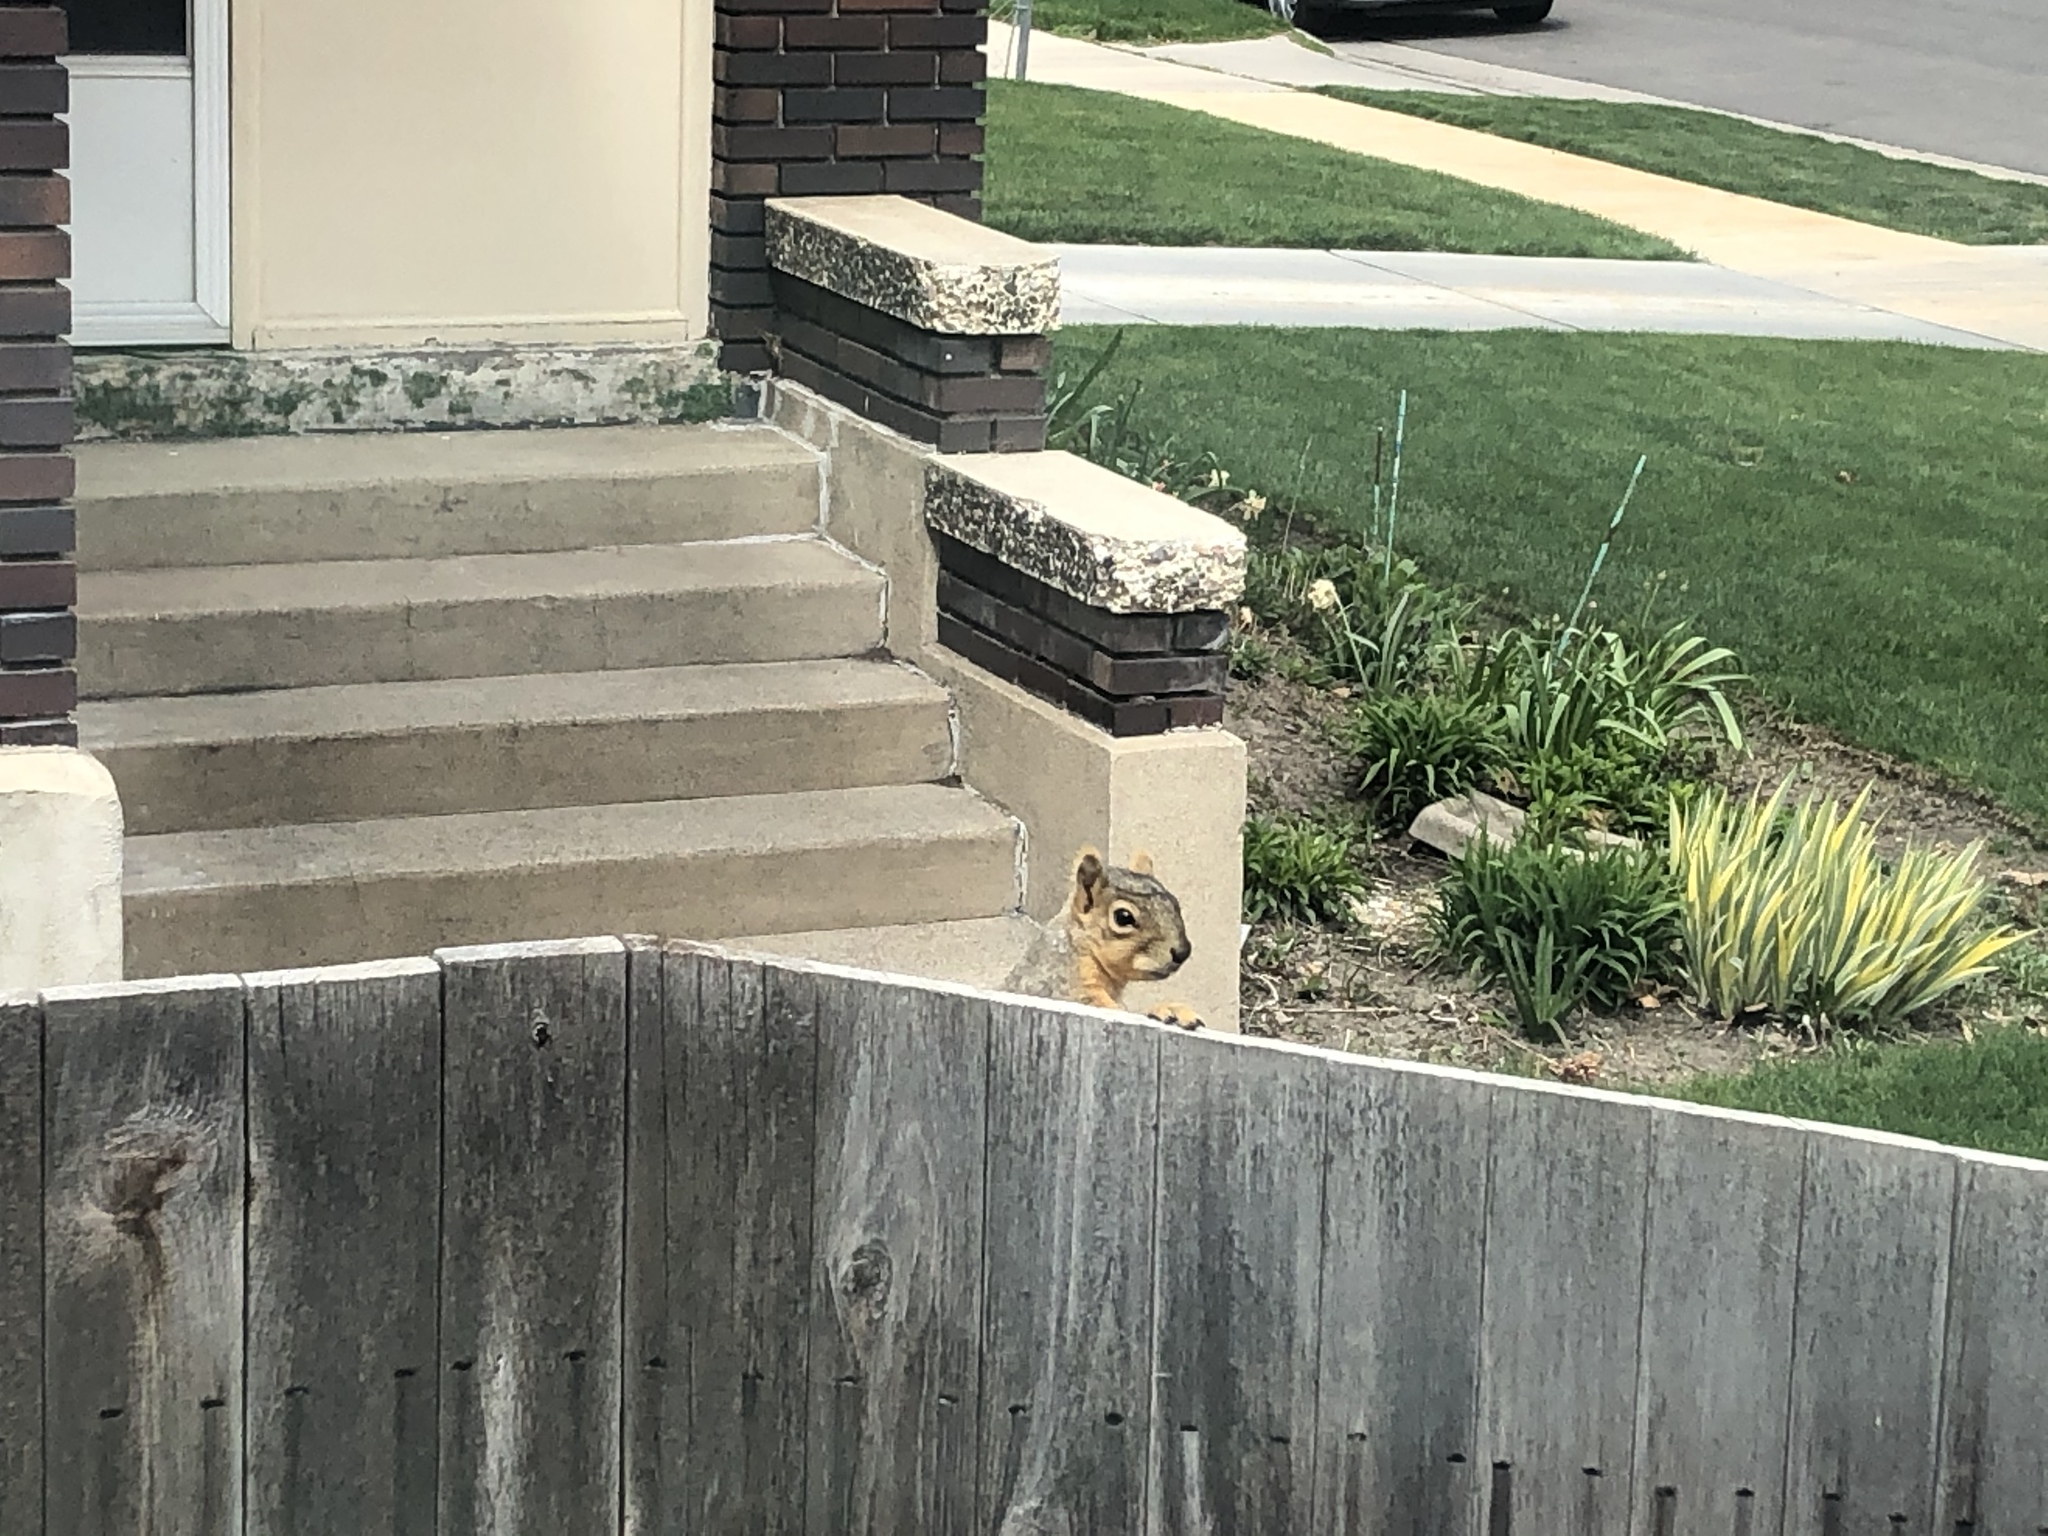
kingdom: Animalia
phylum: Chordata
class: Mammalia
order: Rodentia
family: Sciuridae
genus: Sciurus
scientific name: Sciurus niger
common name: Fox squirrel
